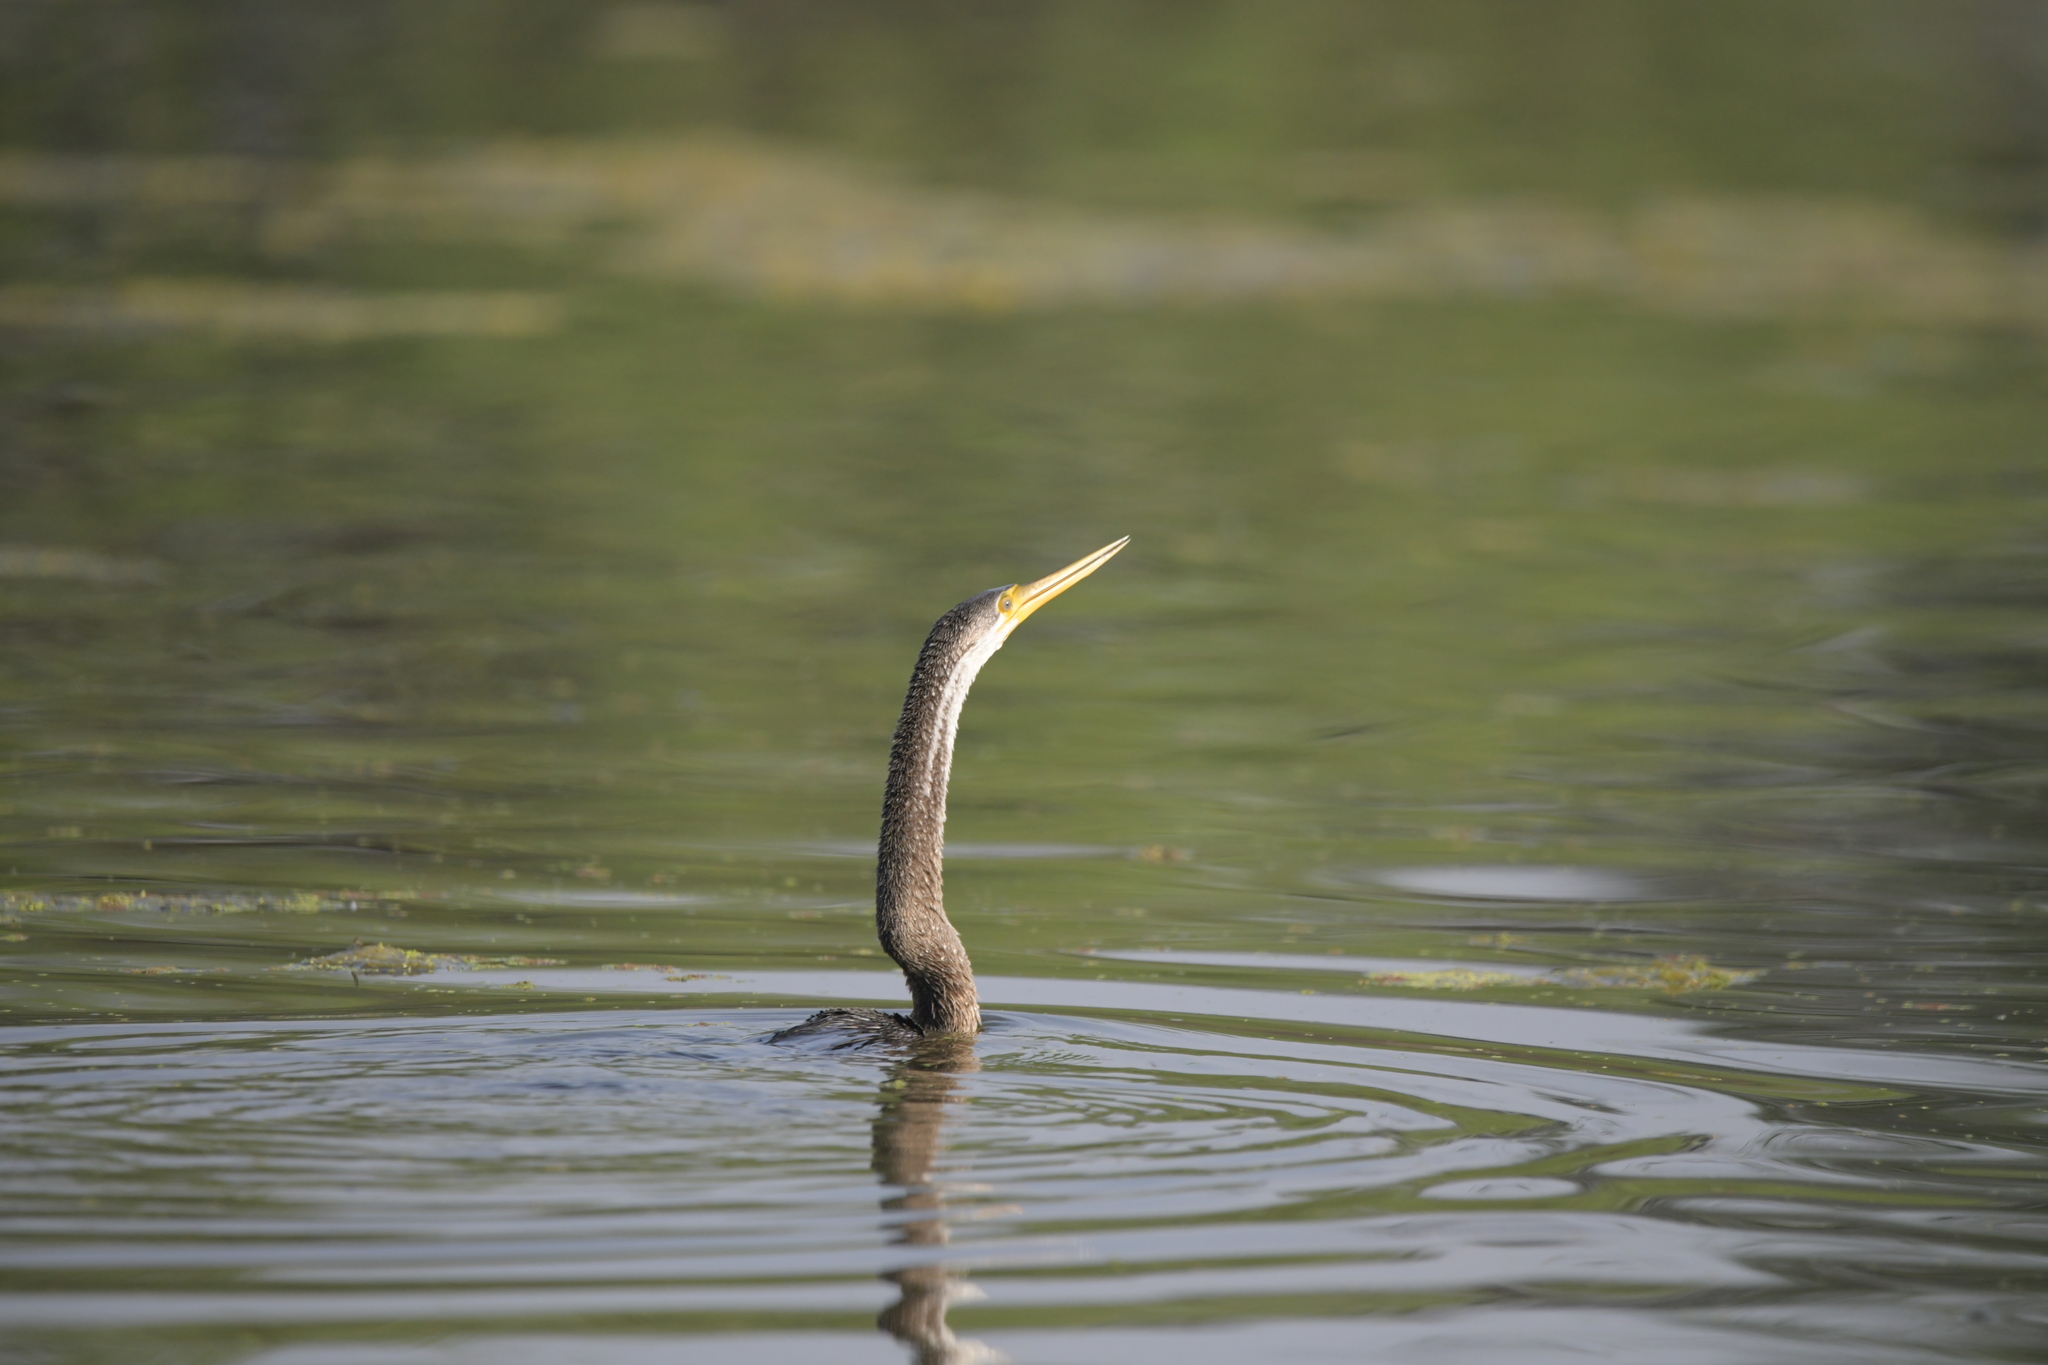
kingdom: Animalia
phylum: Chordata
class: Aves
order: Suliformes
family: Anhingidae
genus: Anhinga
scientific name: Anhinga melanogaster
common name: Oriental darter
